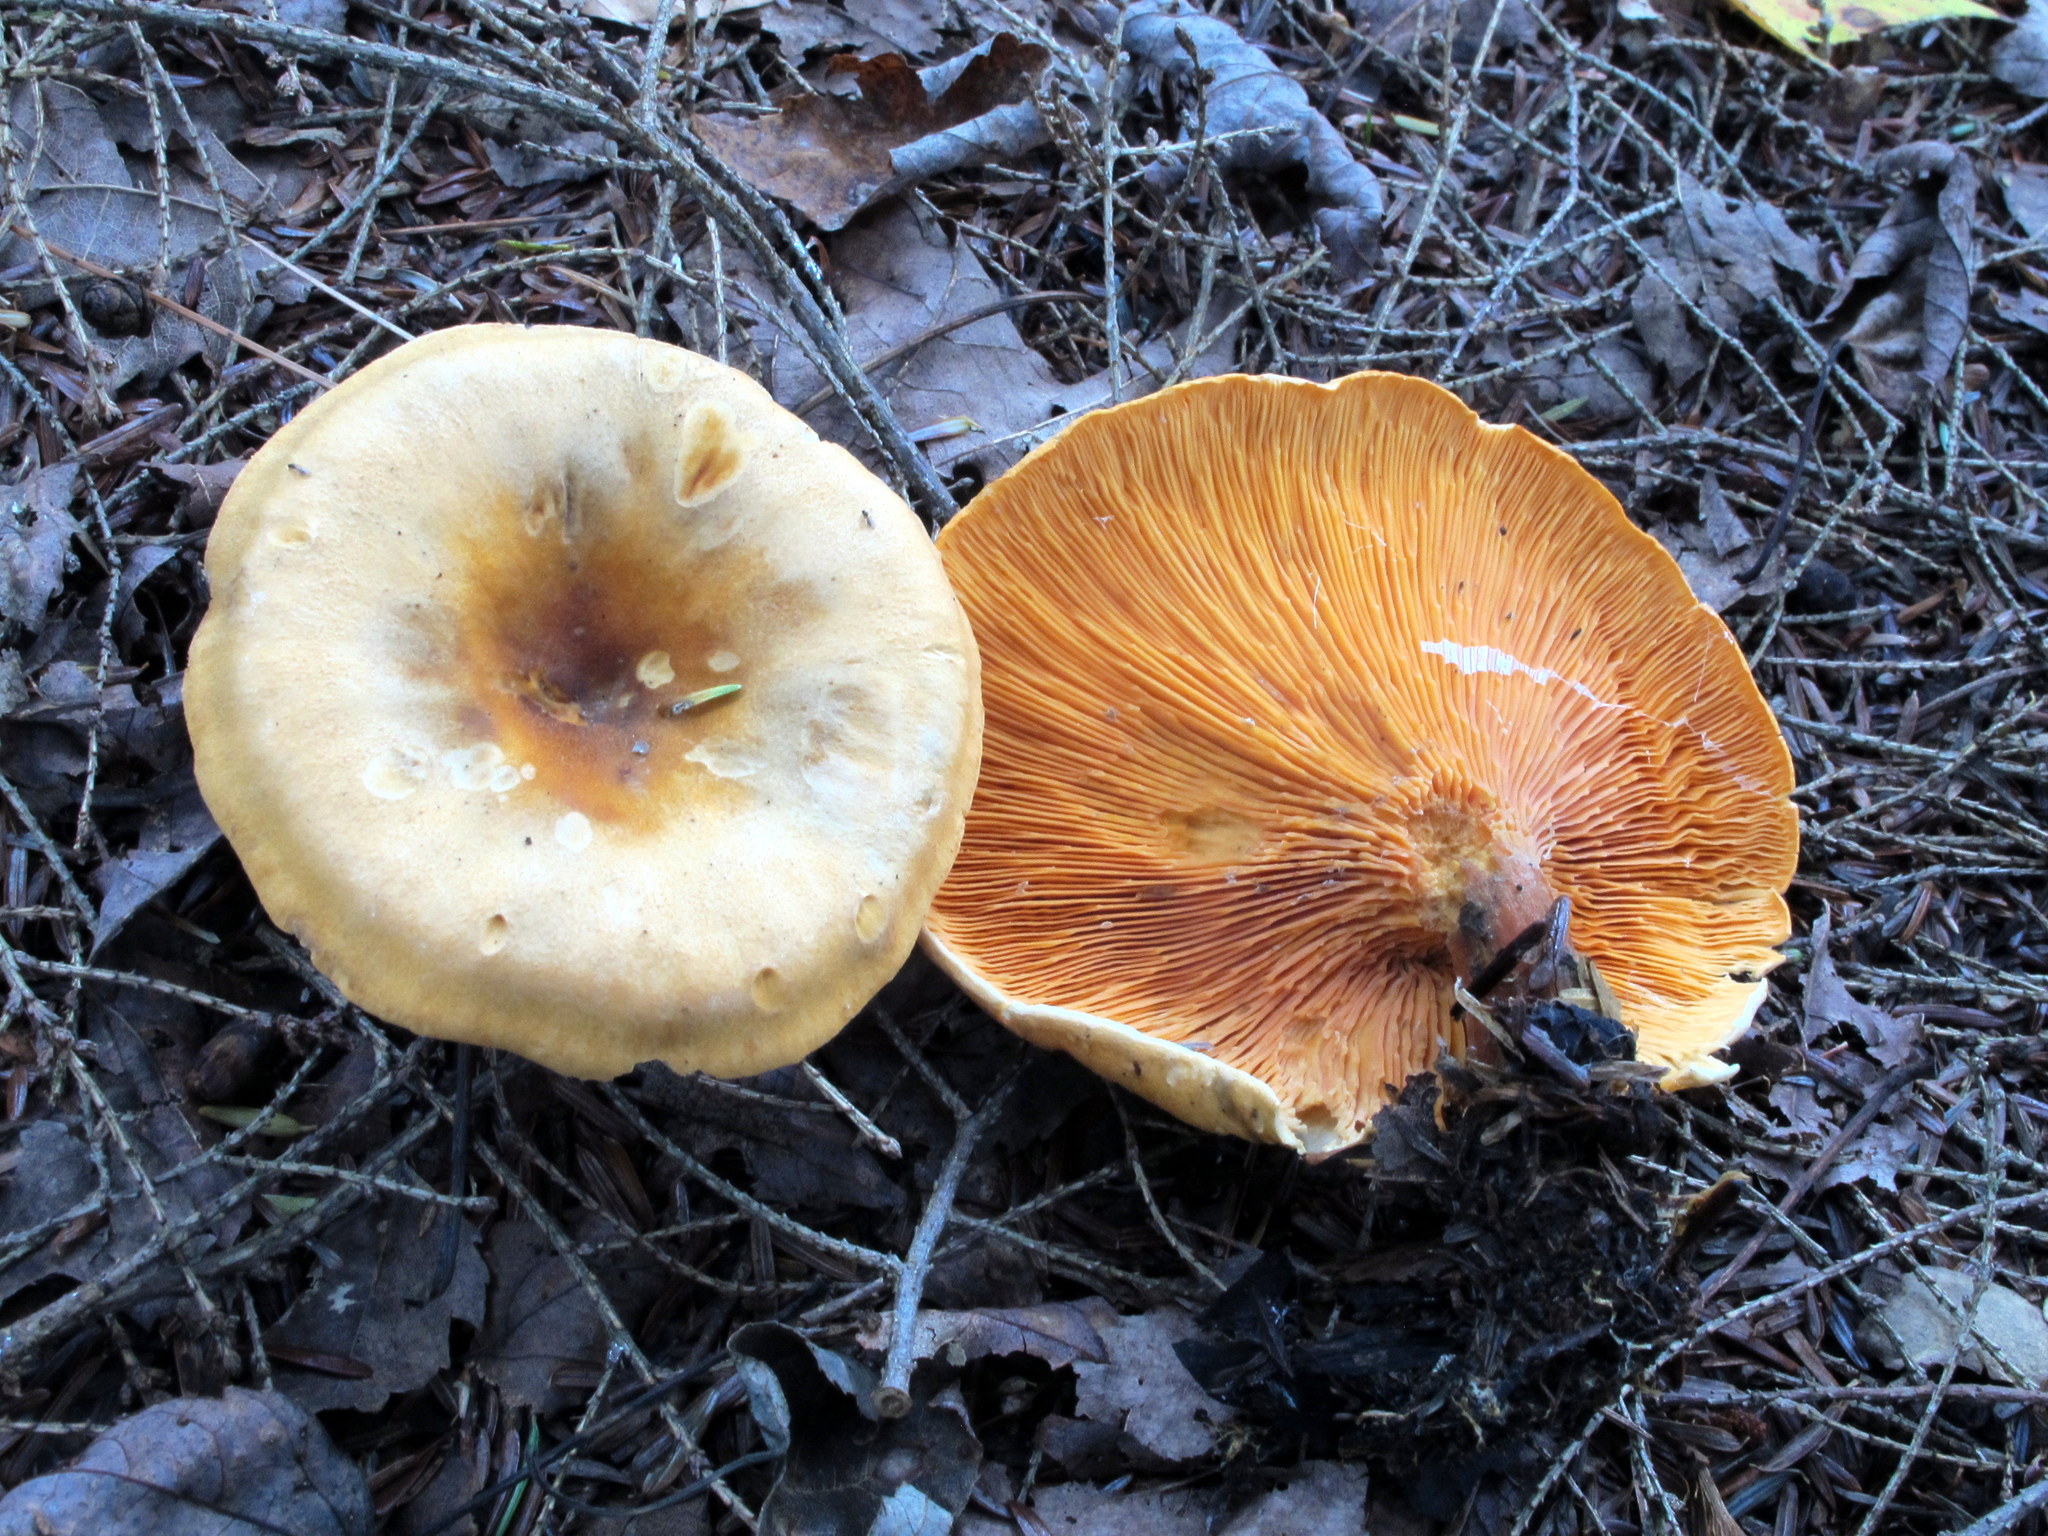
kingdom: Fungi
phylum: Basidiomycota
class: Agaricomycetes
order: Boletales
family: Hygrophoropsidaceae
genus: Hygrophoropsis
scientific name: Hygrophoropsis aurantiaca
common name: False chanterelle
